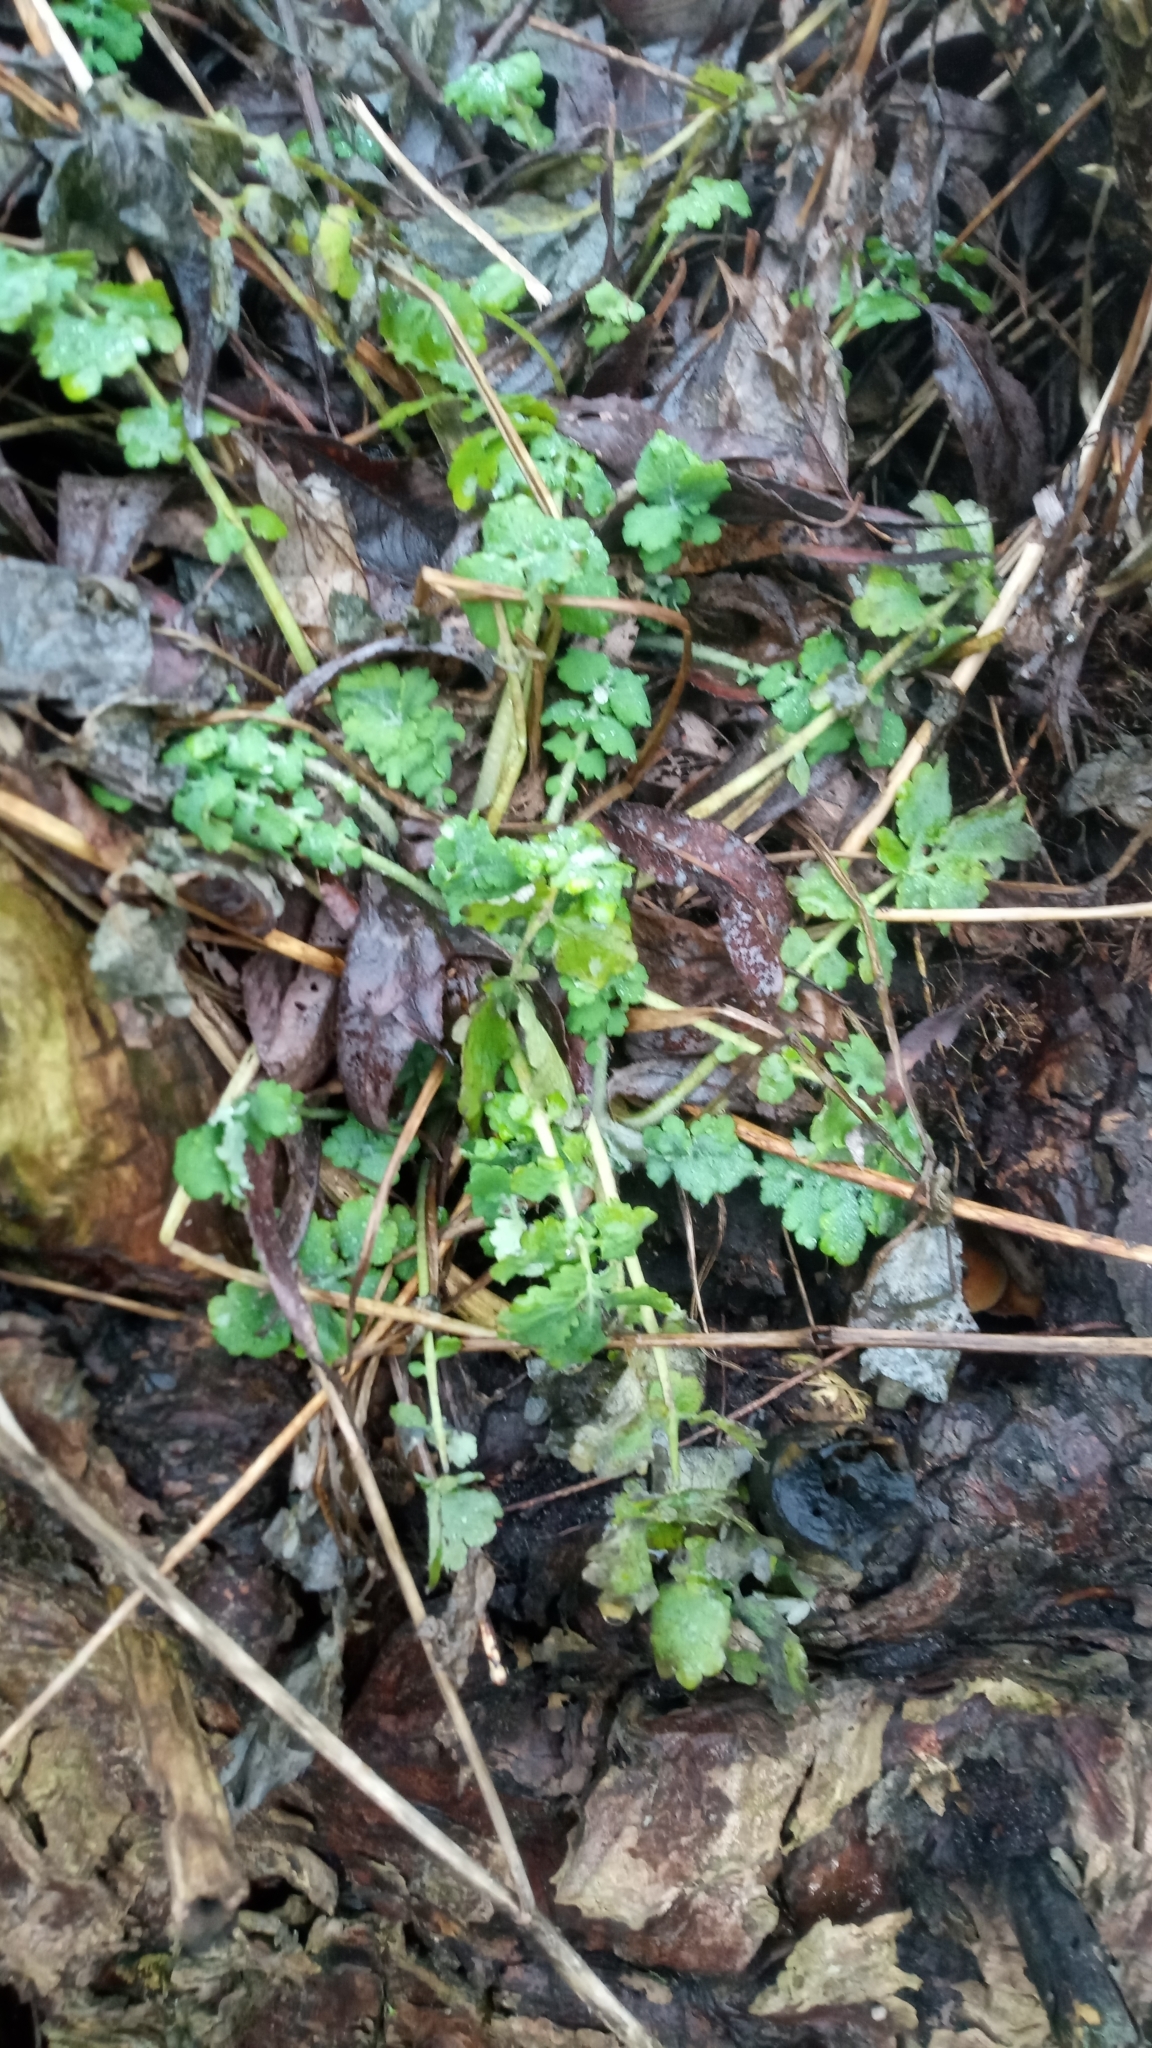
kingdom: Plantae
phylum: Tracheophyta
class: Magnoliopsida
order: Ranunculales
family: Papaveraceae
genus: Chelidonium
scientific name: Chelidonium majus
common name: Greater celandine
